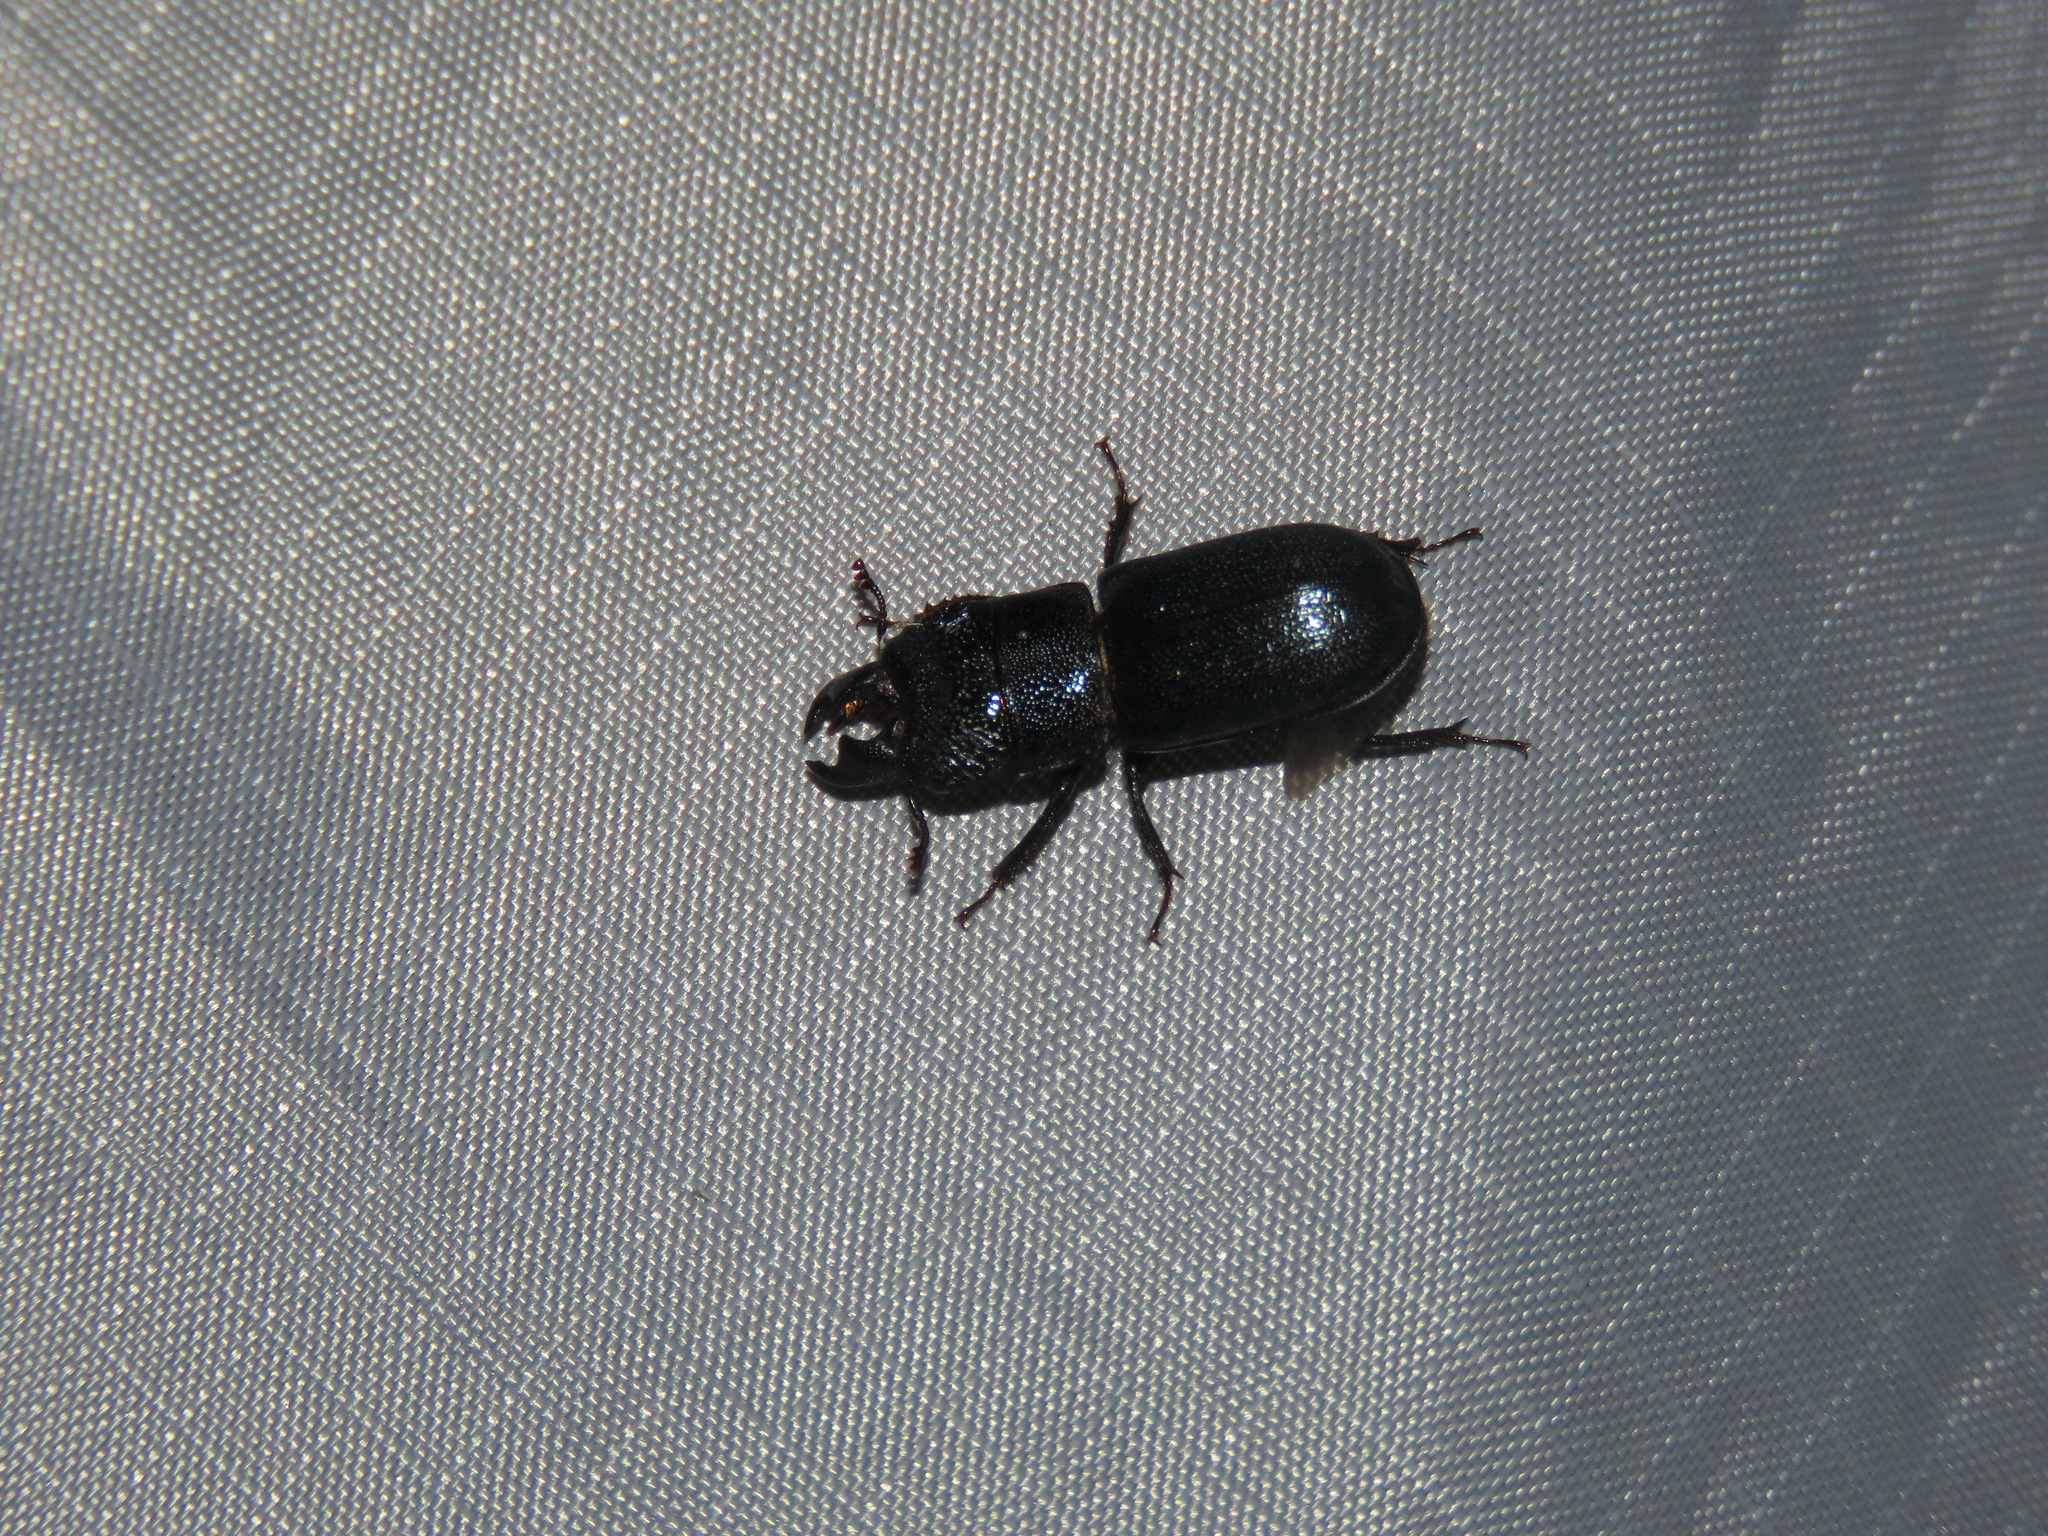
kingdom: Animalia
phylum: Arthropoda
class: Insecta
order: Coleoptera
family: Lucanidae
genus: Ceruchus
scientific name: Ceruchus punctatus
